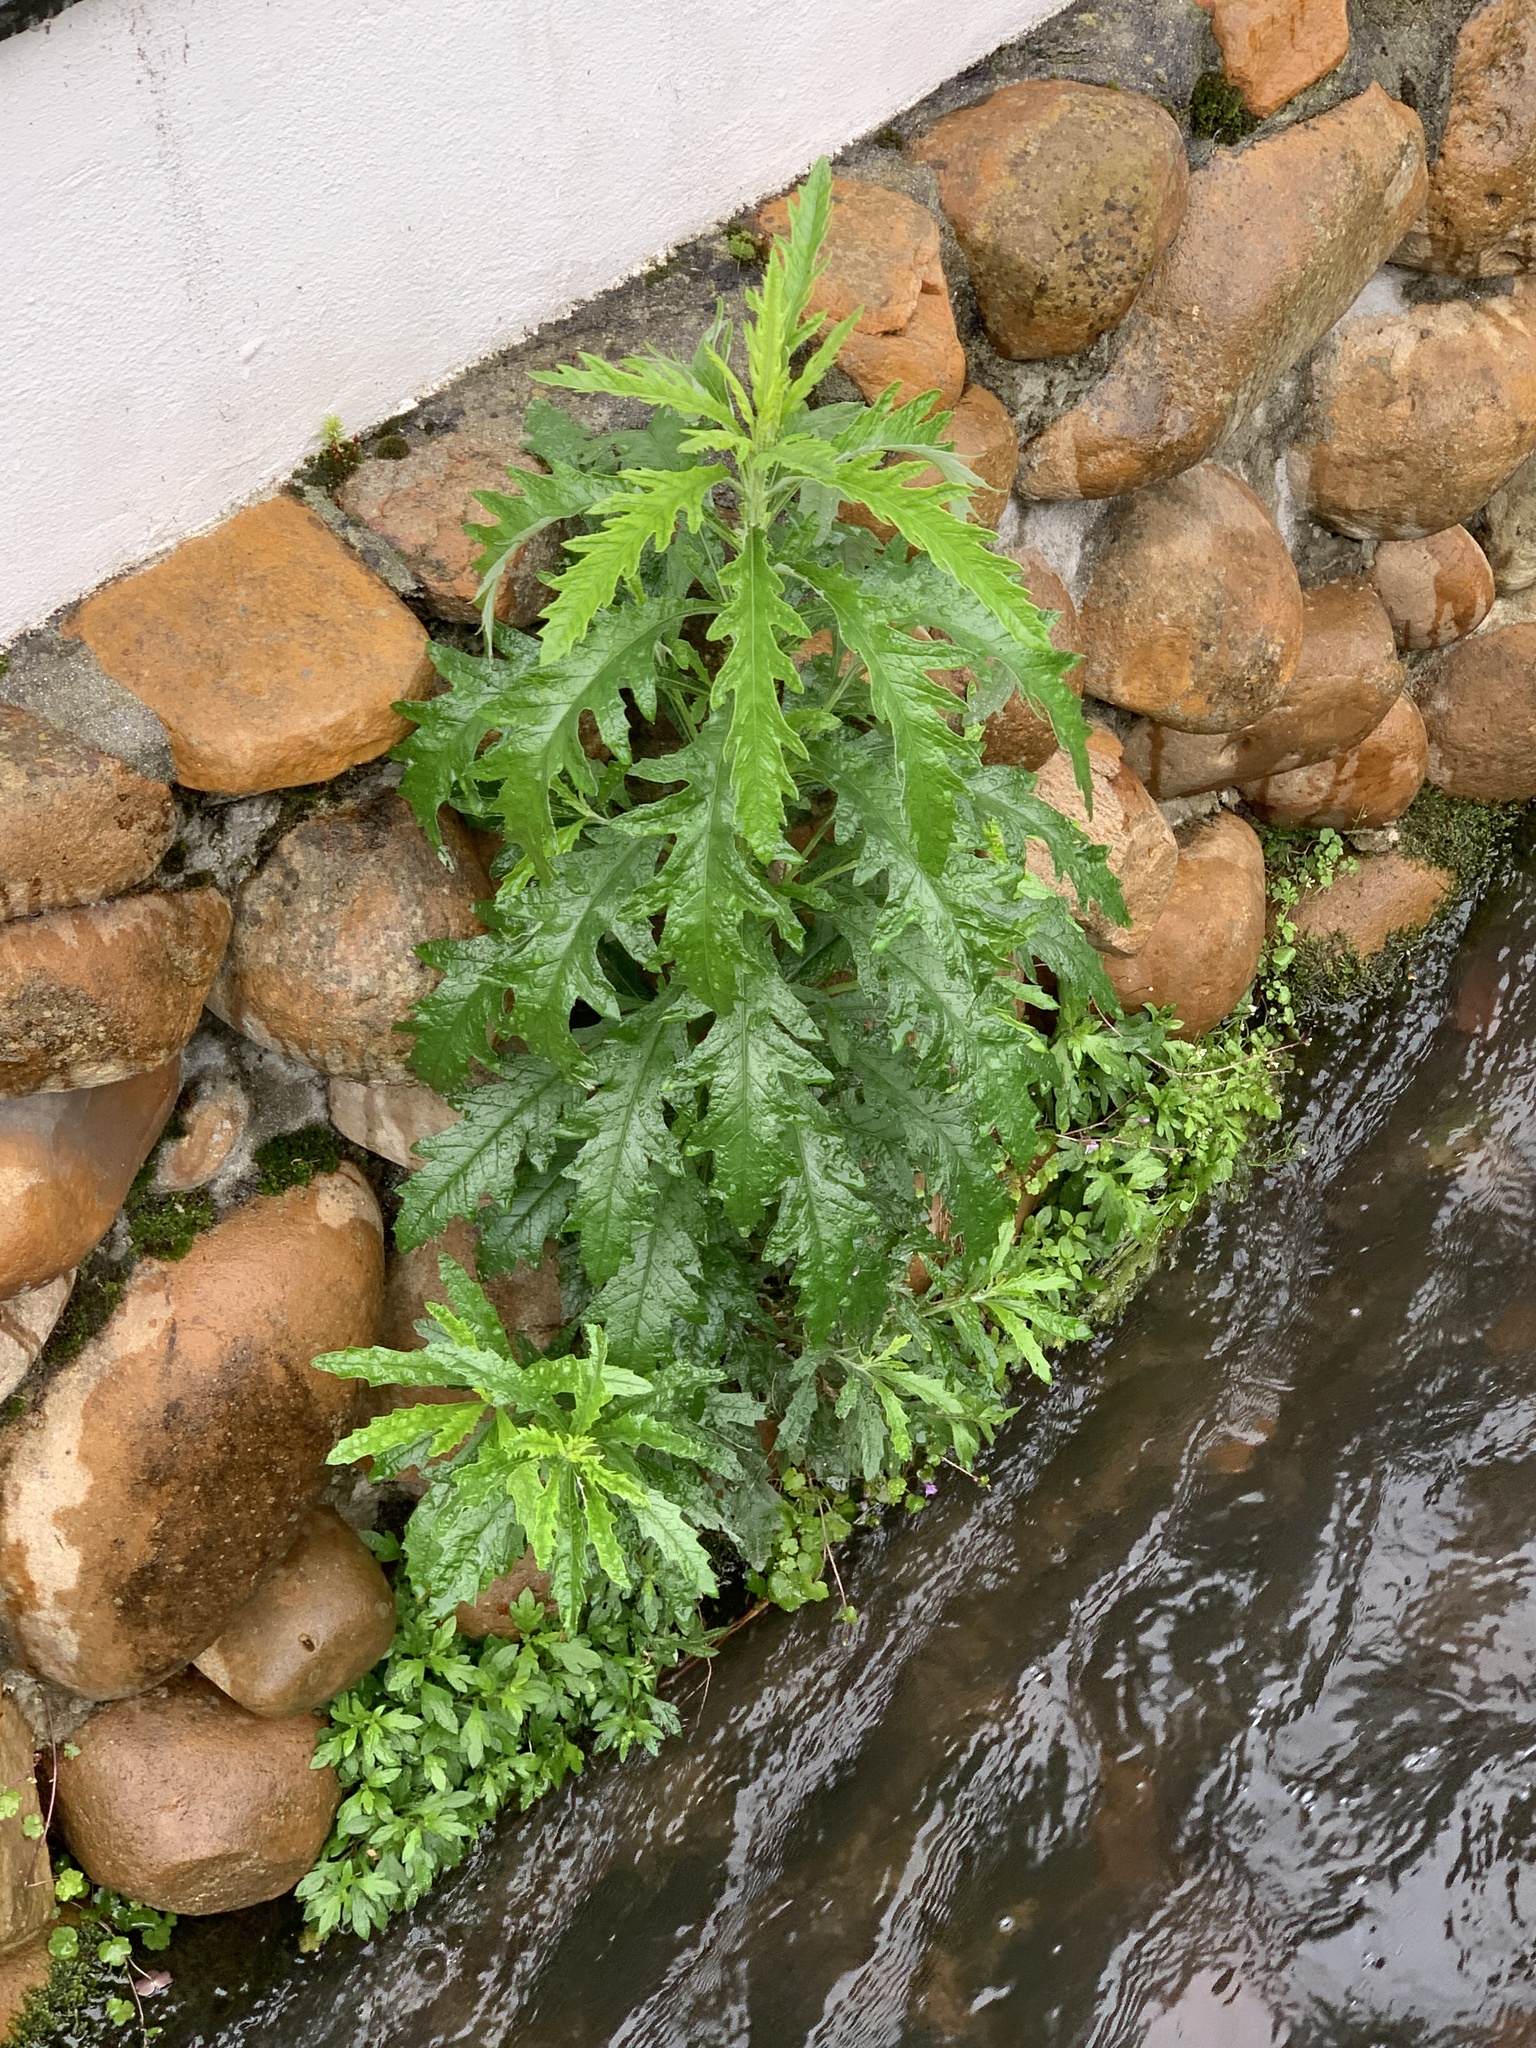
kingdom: Plantae
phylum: Tracheophyta
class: Magnoliopsida
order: Asterales
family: Asteraceae
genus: Senecio
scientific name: Senecio pterophorus
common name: Shoddy ragwort
